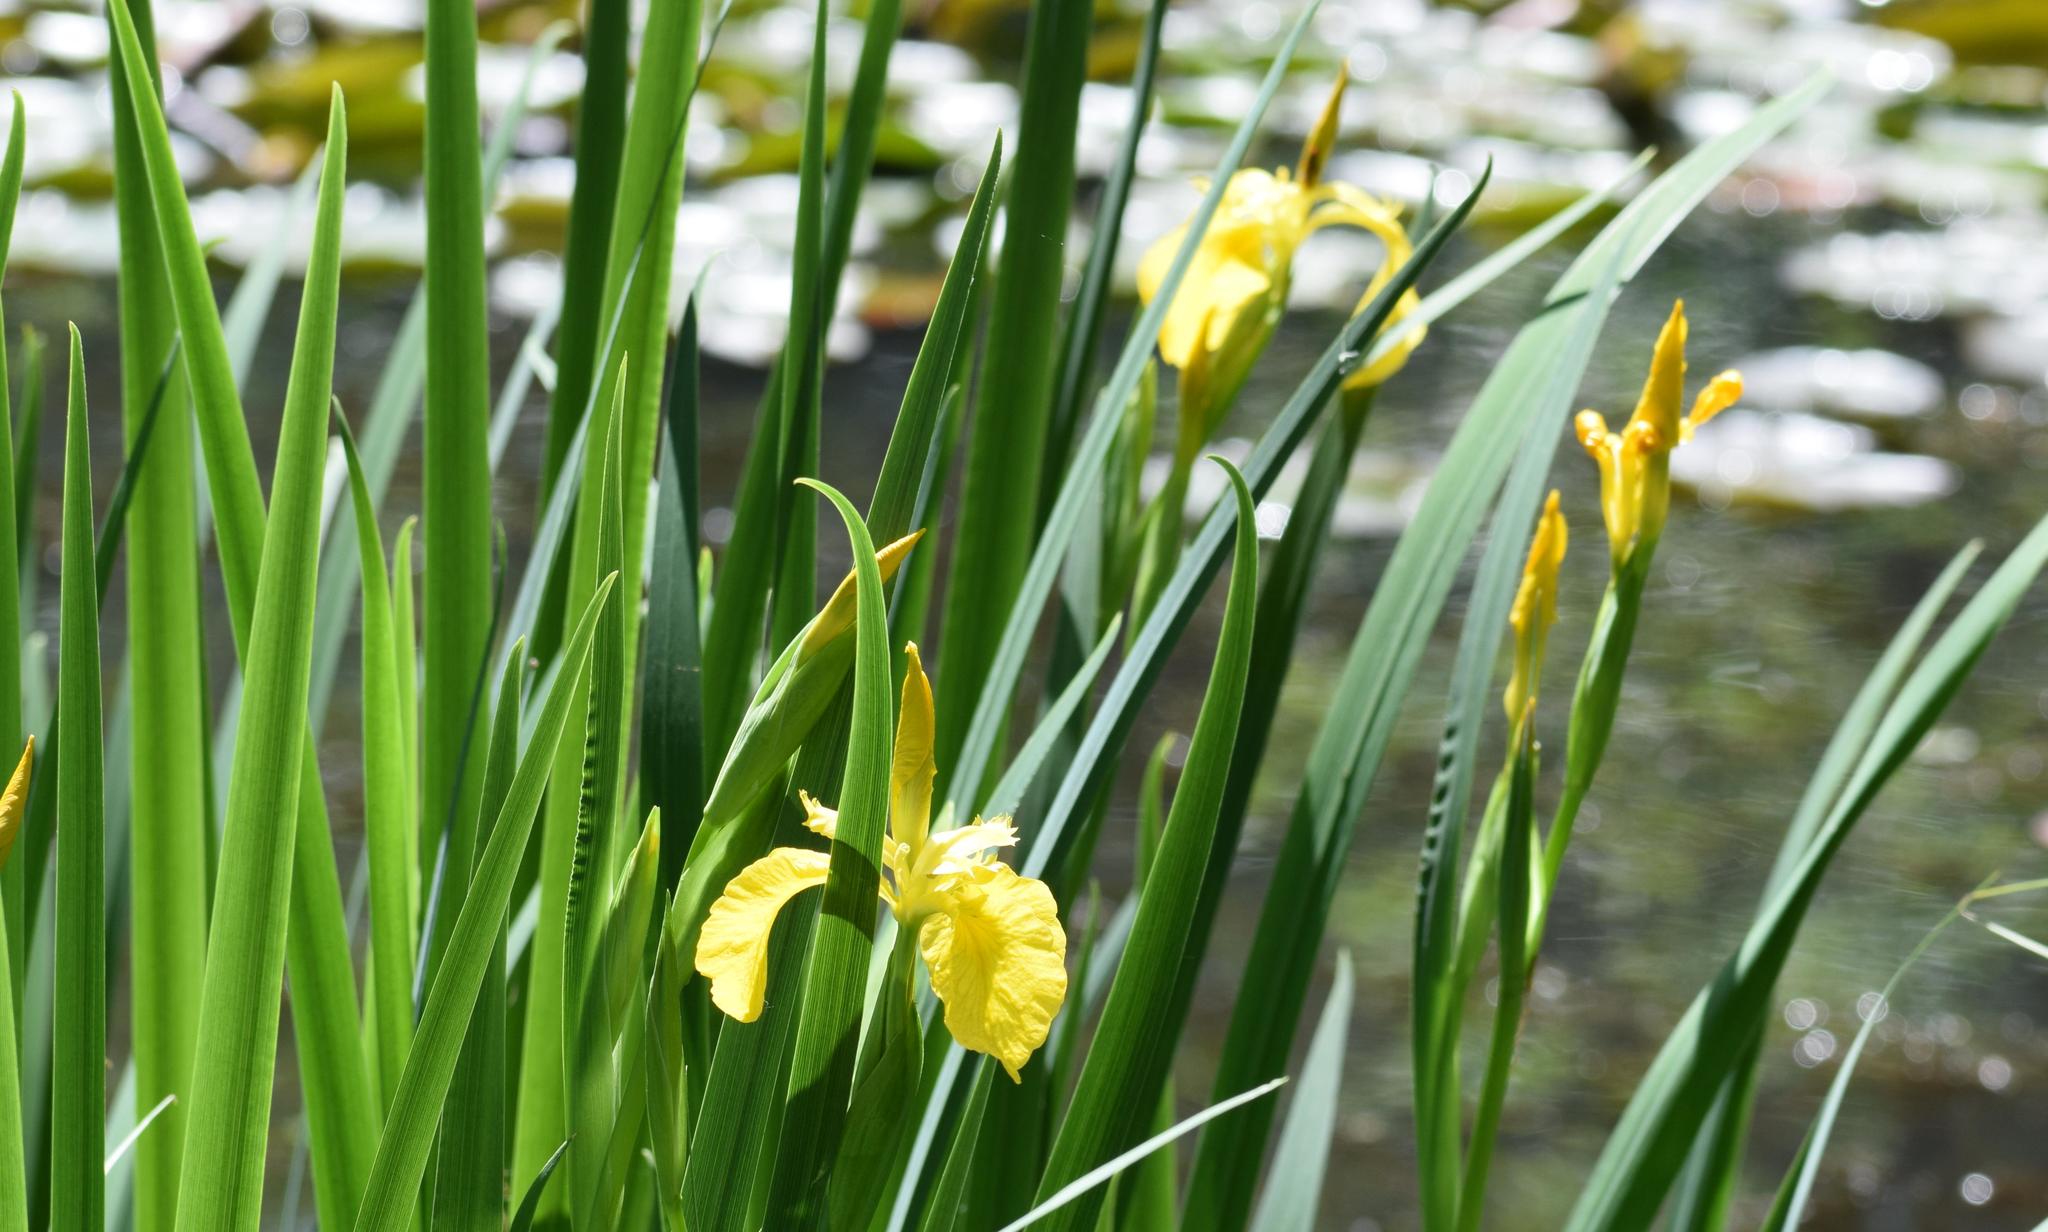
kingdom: Plantae
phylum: Tracheophyta
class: Liliopsida
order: Asparagales
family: Iridaceae
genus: Iris
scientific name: Iris pseudacorus
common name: Yellow flag
